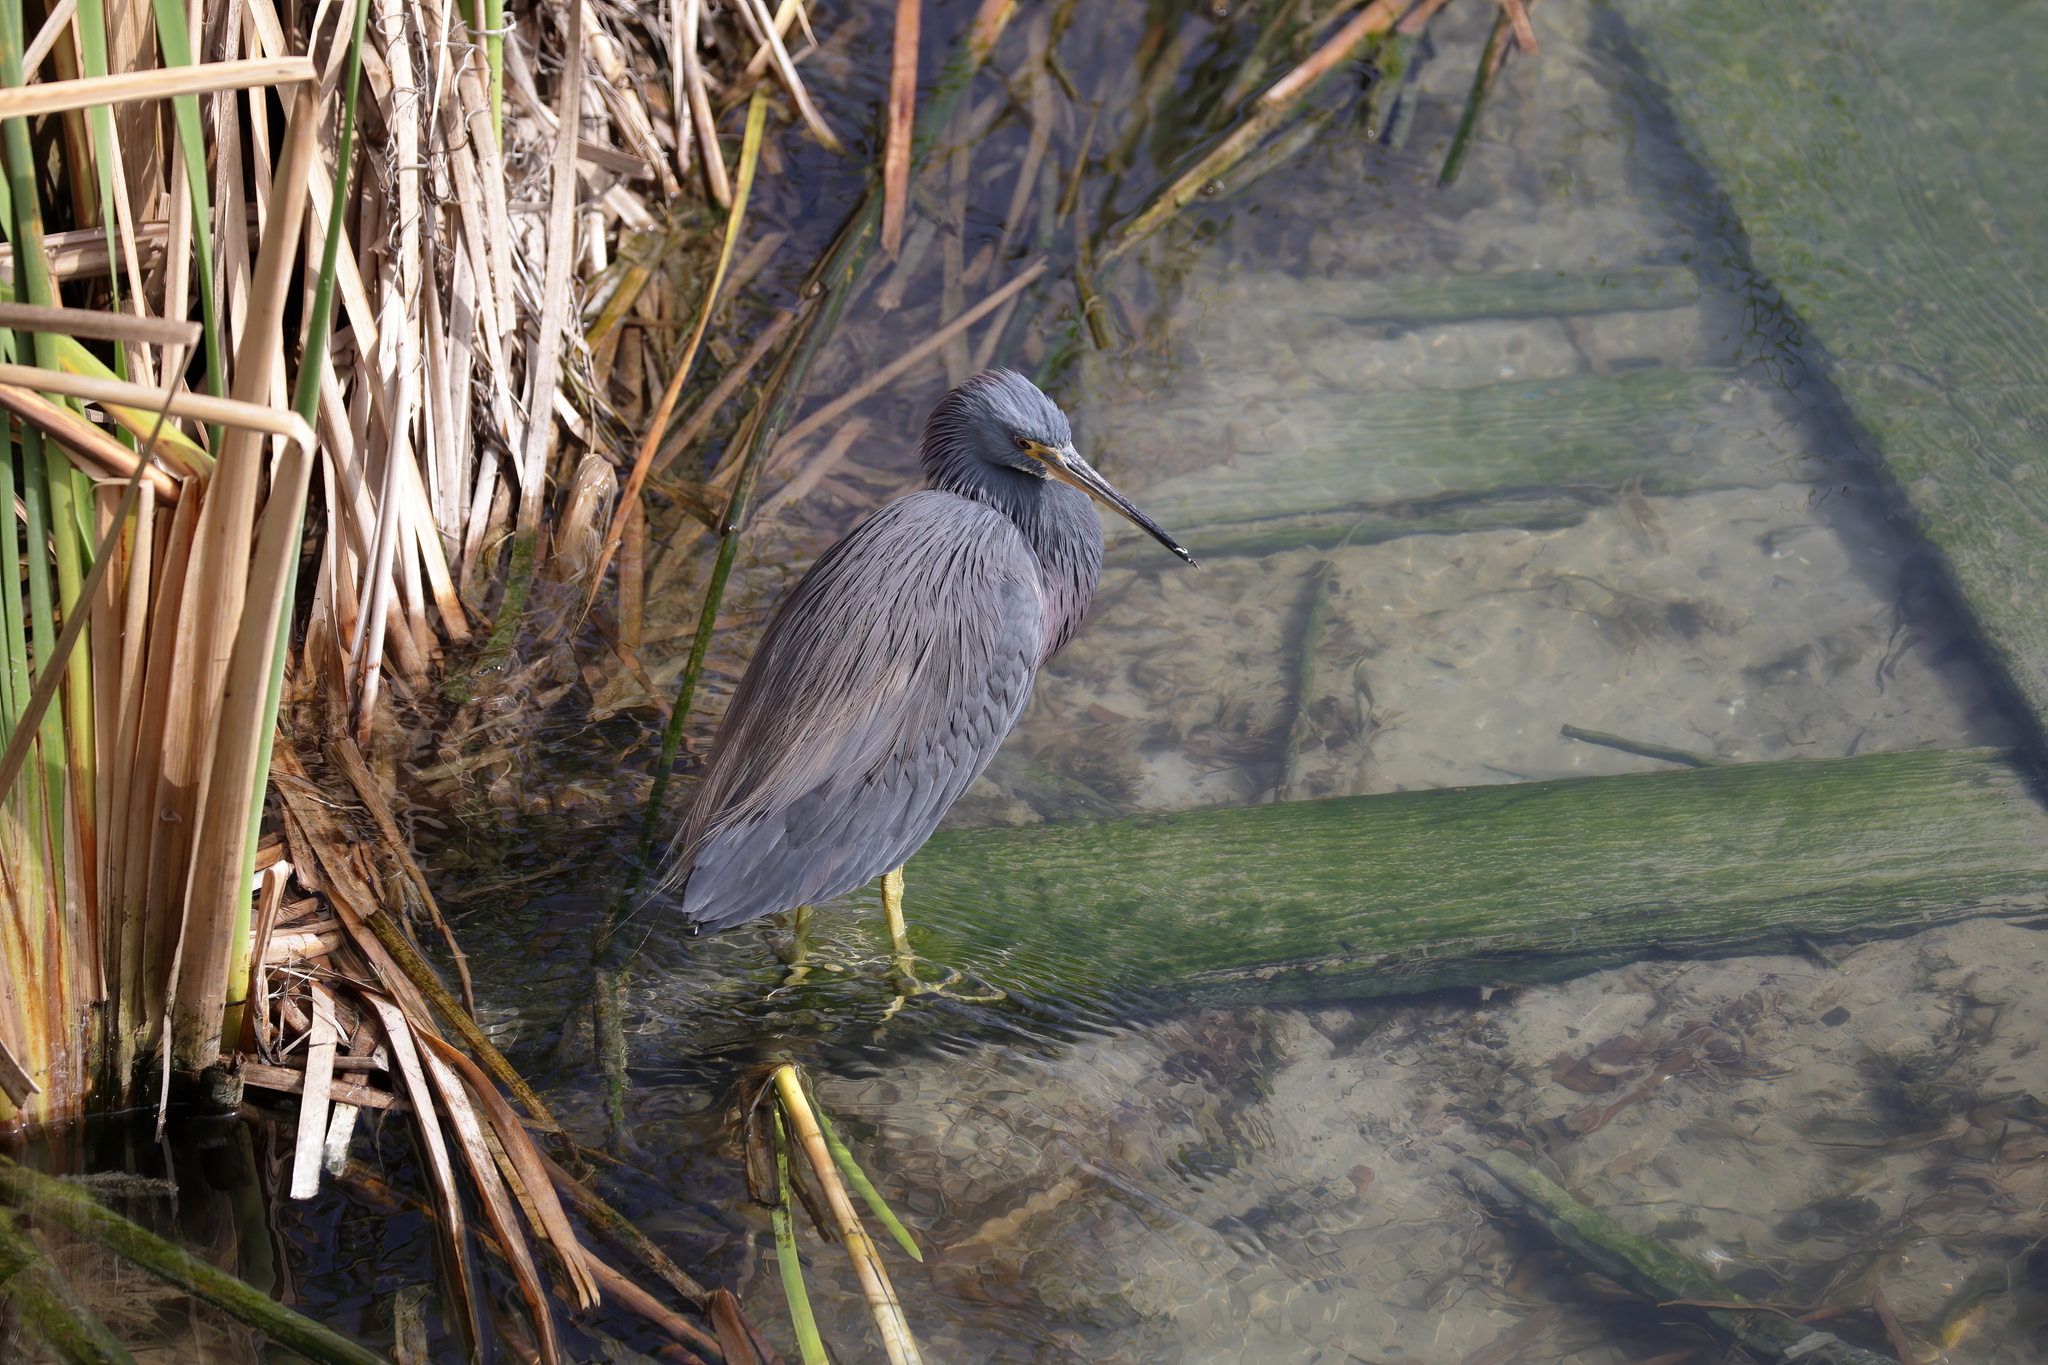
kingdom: Animalia
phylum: Chordata
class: Aves
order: Pelecaniformes
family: Ardeidae
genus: Egretta
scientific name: Egretta tricolor
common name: Tricolored heron
